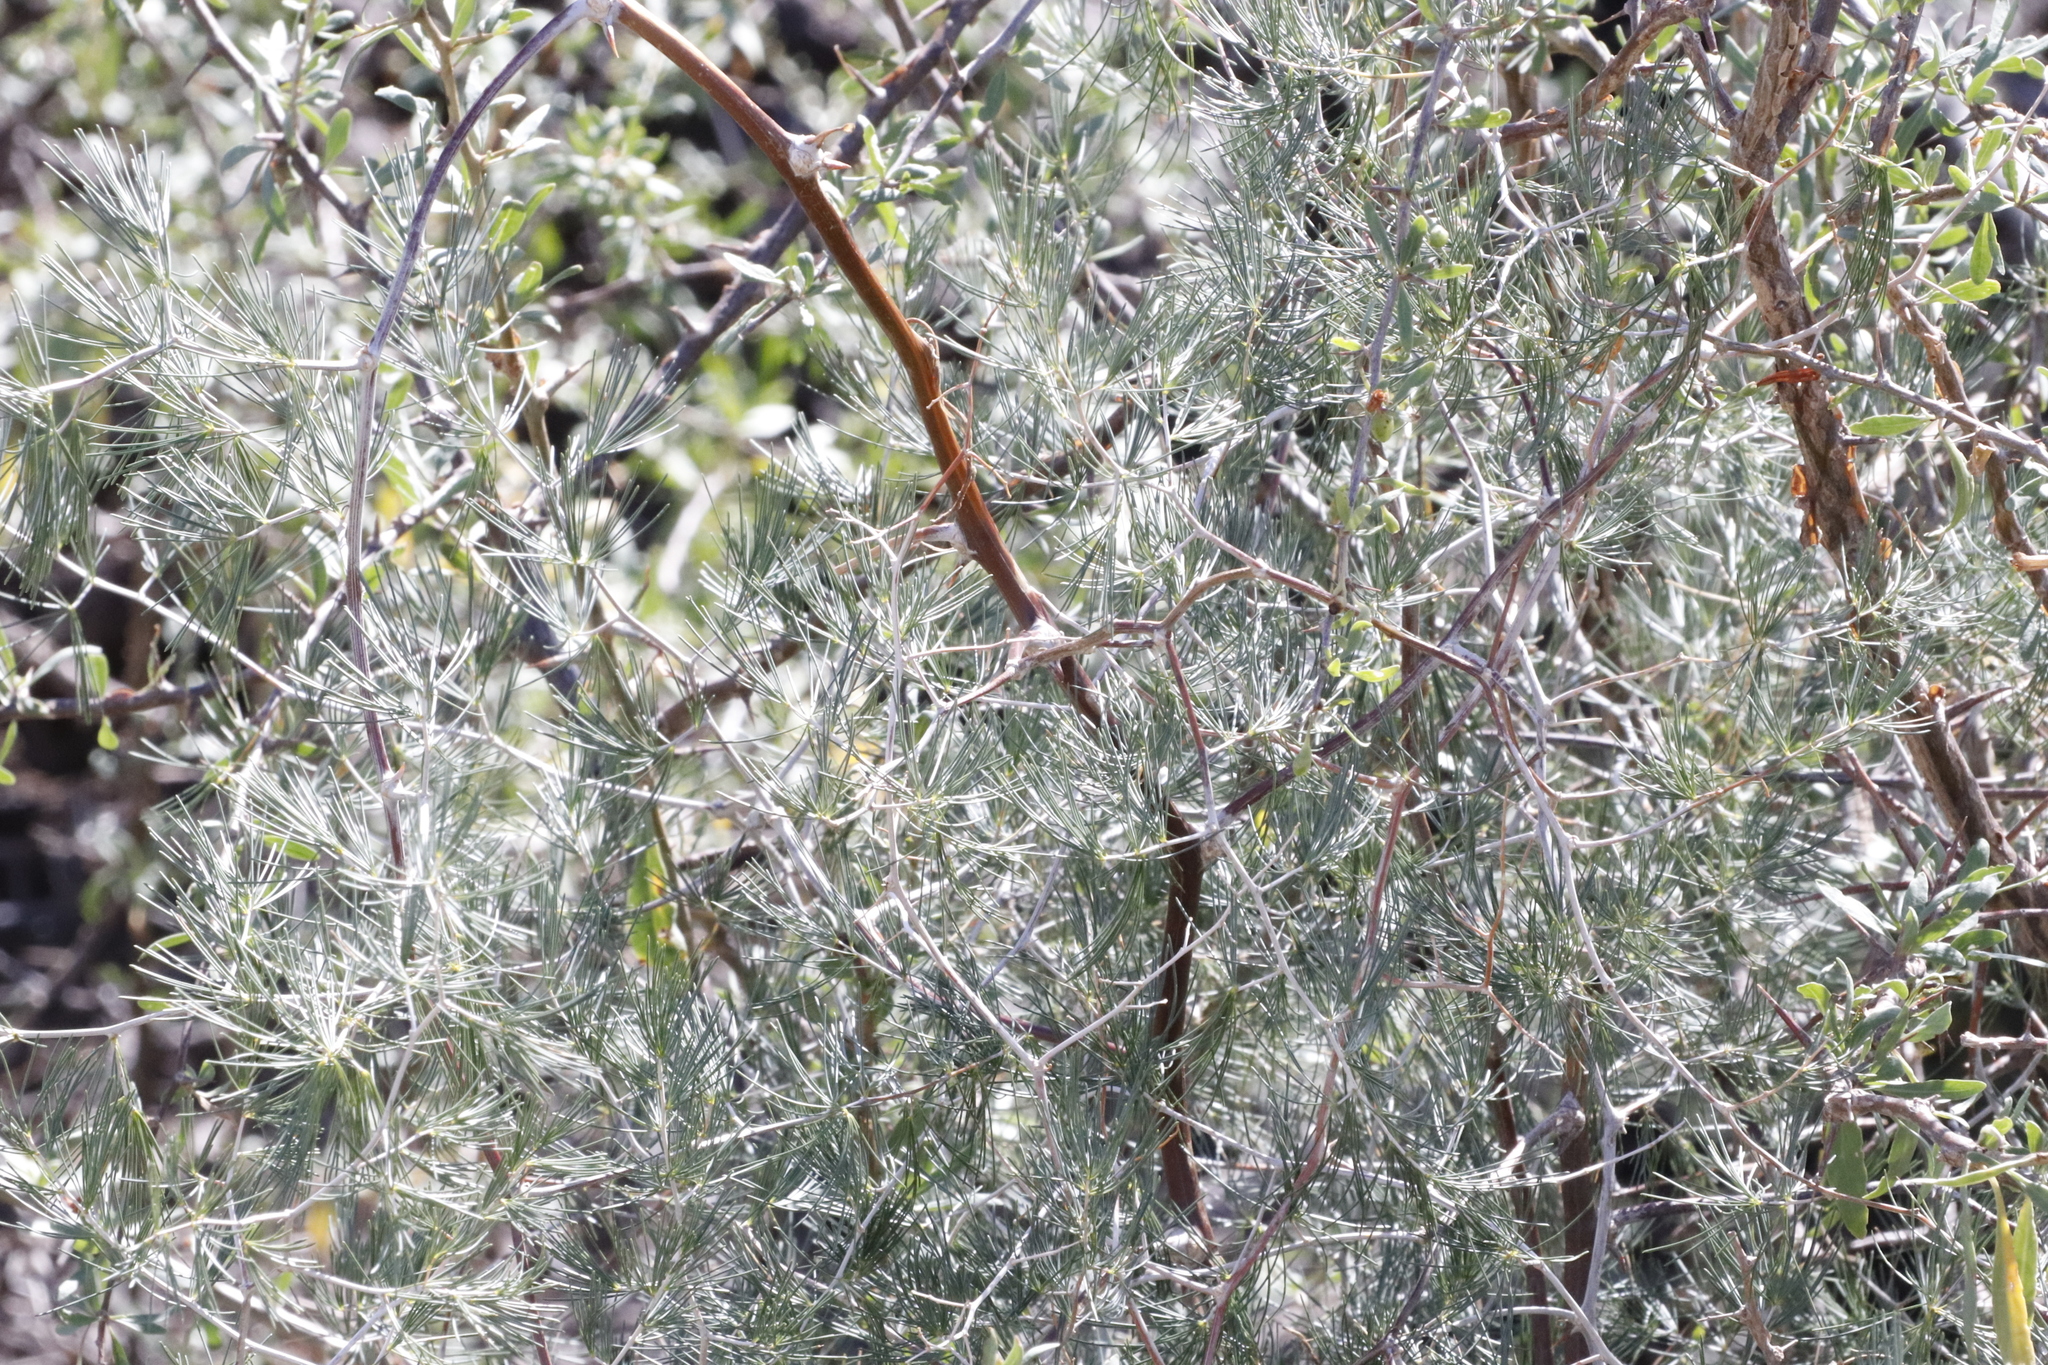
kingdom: Plantae
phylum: Tracheophyta
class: Liliopsida
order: Asparagales
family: Asparagaceae
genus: Asparagus
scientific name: Asparagus retrofractus
